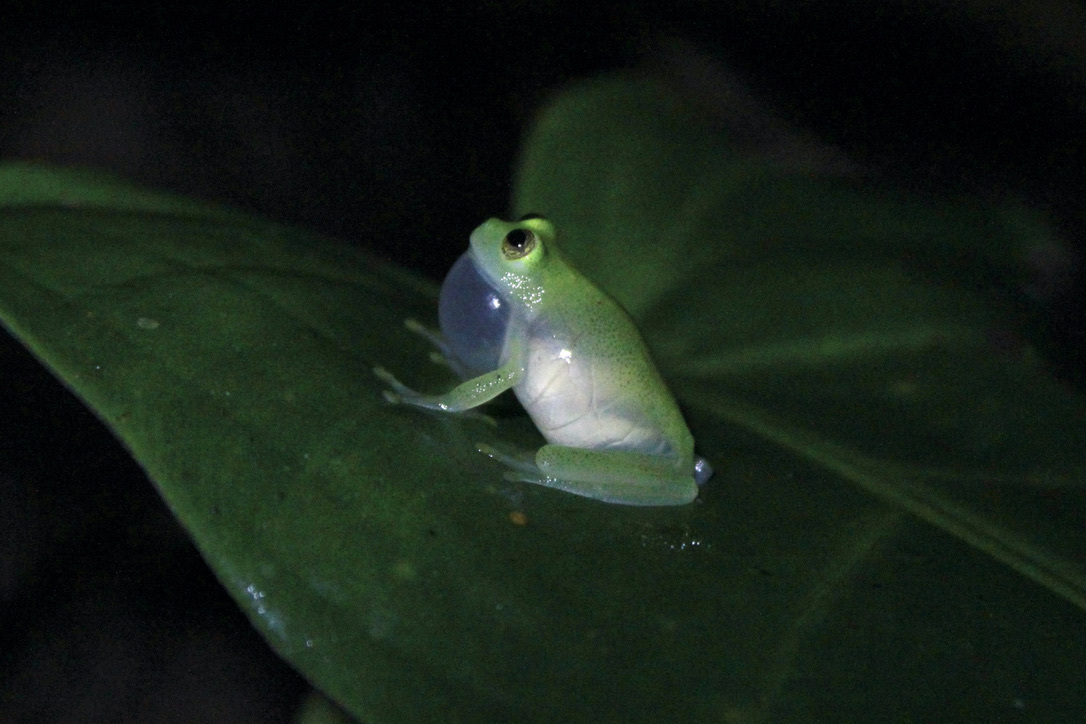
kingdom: Animalia
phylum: Chordata
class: Amphibia
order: Anura
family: Centrolenidae
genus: Hyalinobatrachium
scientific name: Hyalinobatrachium orientale
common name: Eastern glass frog
